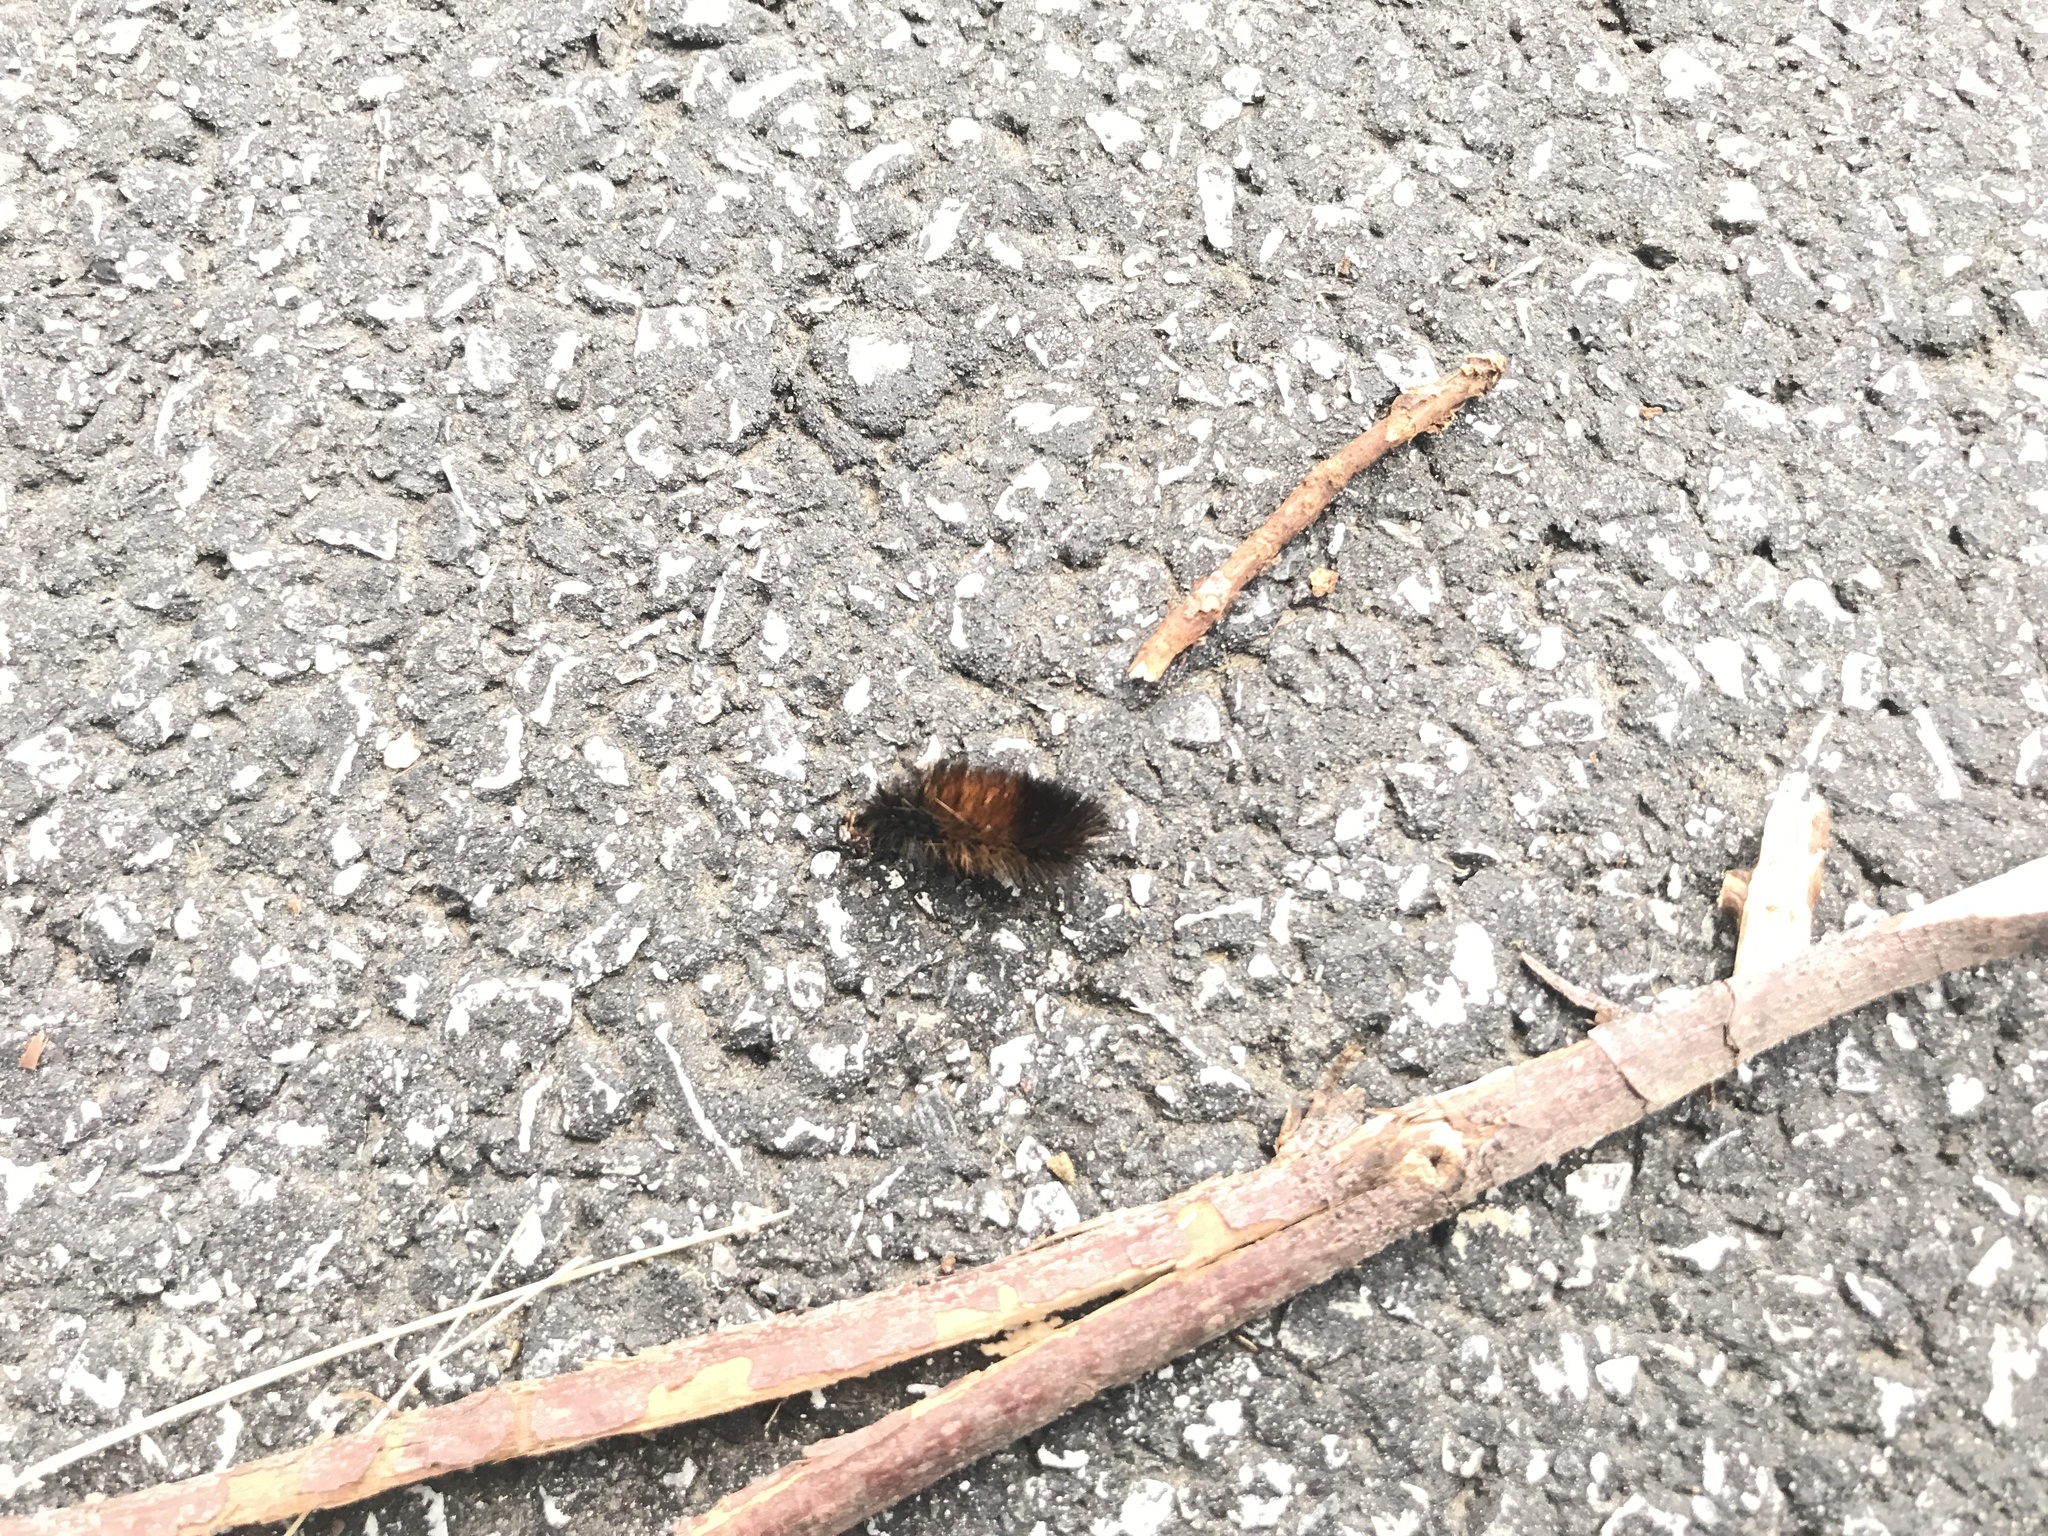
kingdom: Animalia
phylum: Arthropoda
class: Insecta
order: Lepidoptera
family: Erebidae
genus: Pyrrharctia
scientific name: Pyrrharctia isabella
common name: Isabella tiger moth
